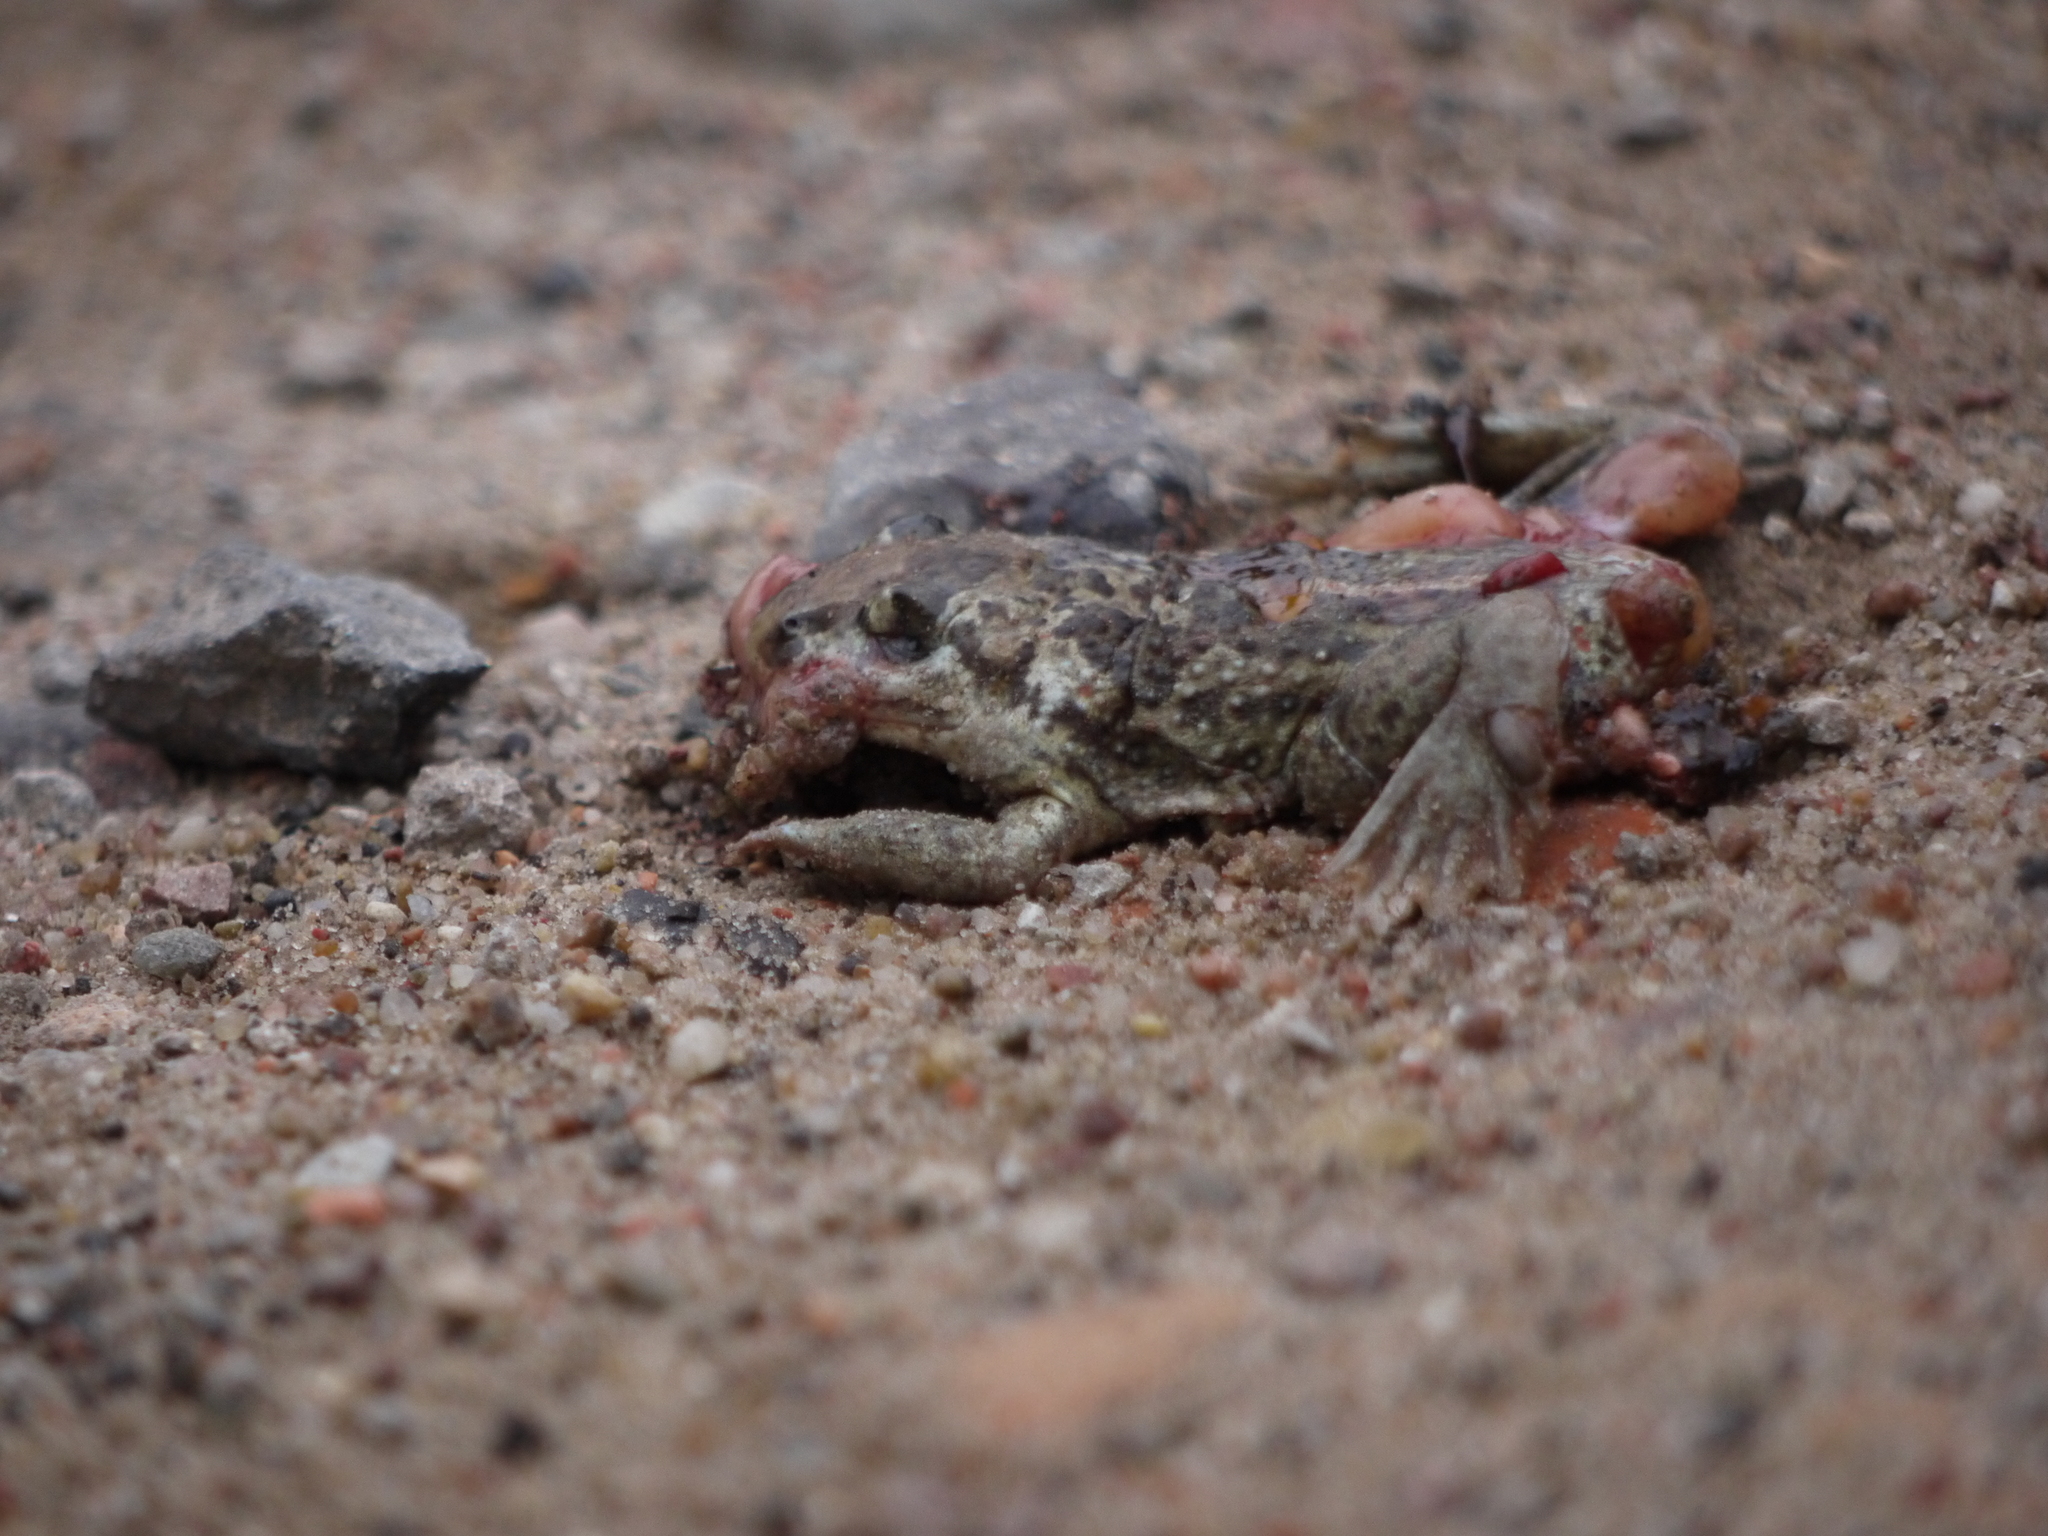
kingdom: Animalia
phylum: Chordata
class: Amphibia
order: Anura
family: Pelobatidae
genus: Pelobates
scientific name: Pelobates fuscus
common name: Common eurasian spadefoot toad
